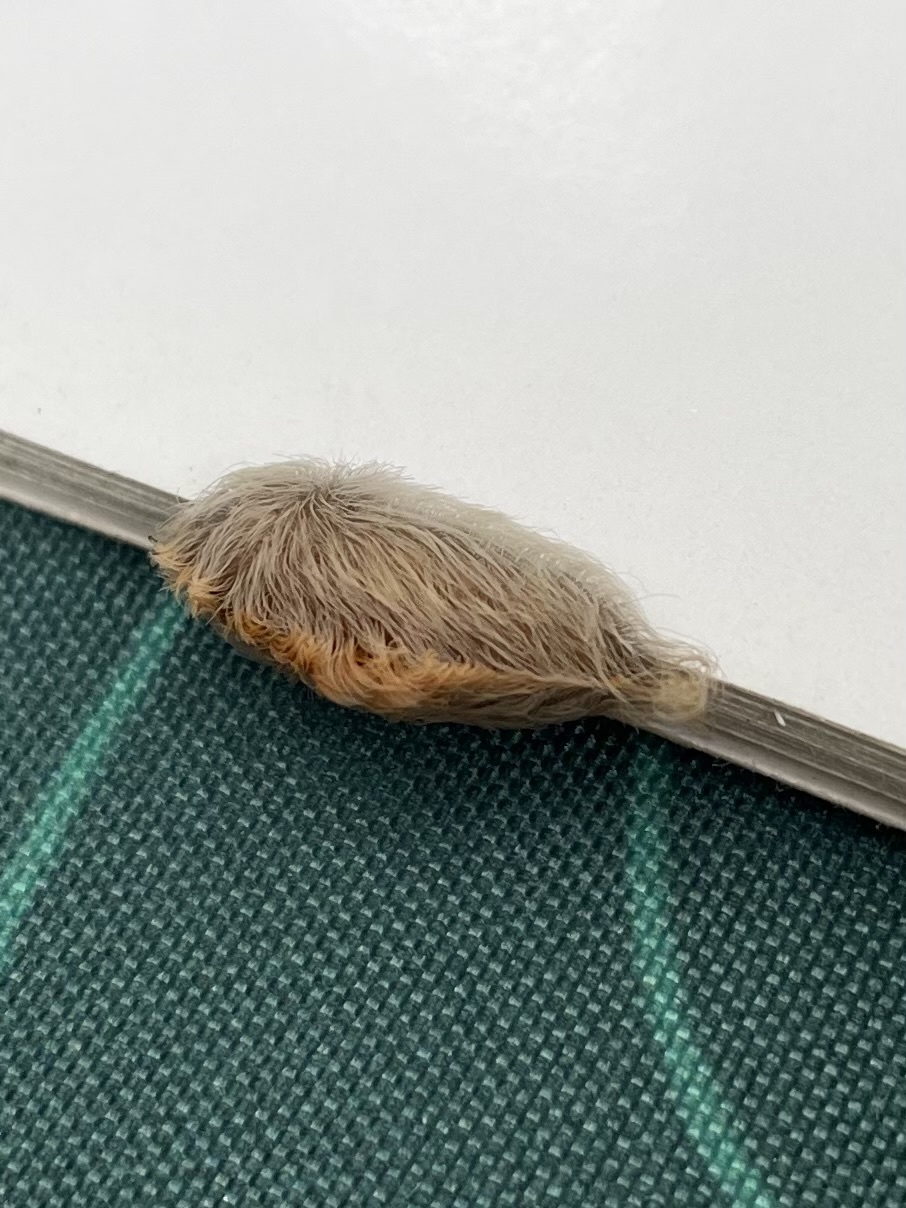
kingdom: Animalia
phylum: Arthropoda
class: Insecta
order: Lepidoptera
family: Megalopygidae
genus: Megalopyge
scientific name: Megalopyge opercularis
